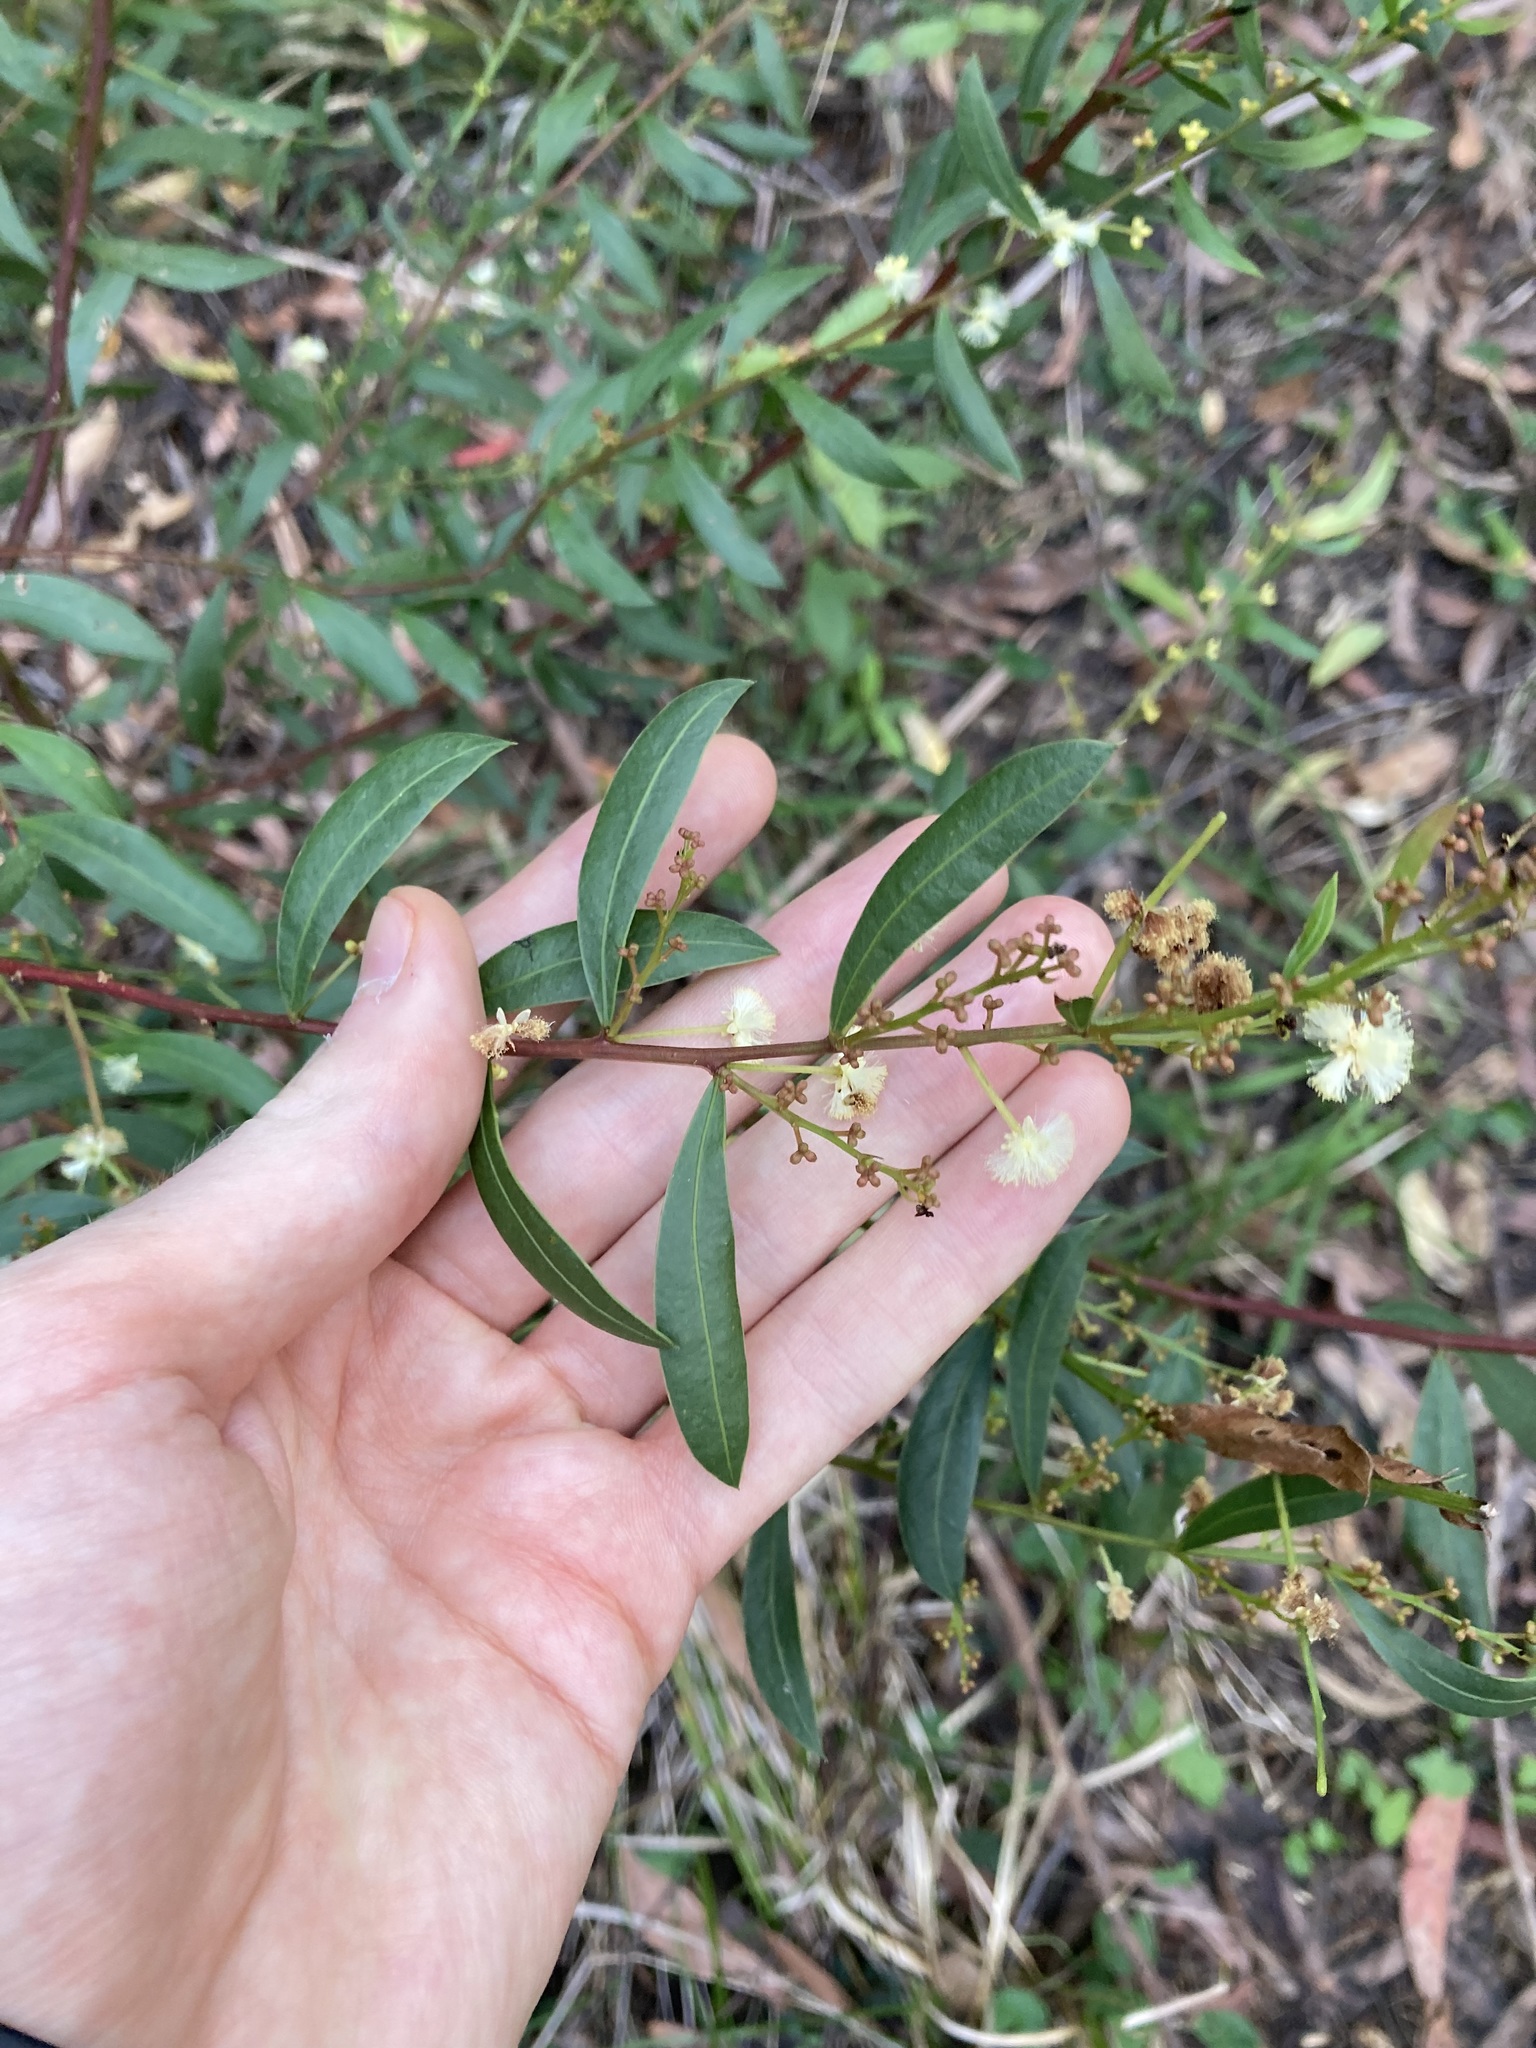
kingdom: Plantae
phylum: Tracheophyta
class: Magnoliopsida
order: Fabales
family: Fabaceae
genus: Acacia
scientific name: Acacia myrtifolia
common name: Myrtle wattle
